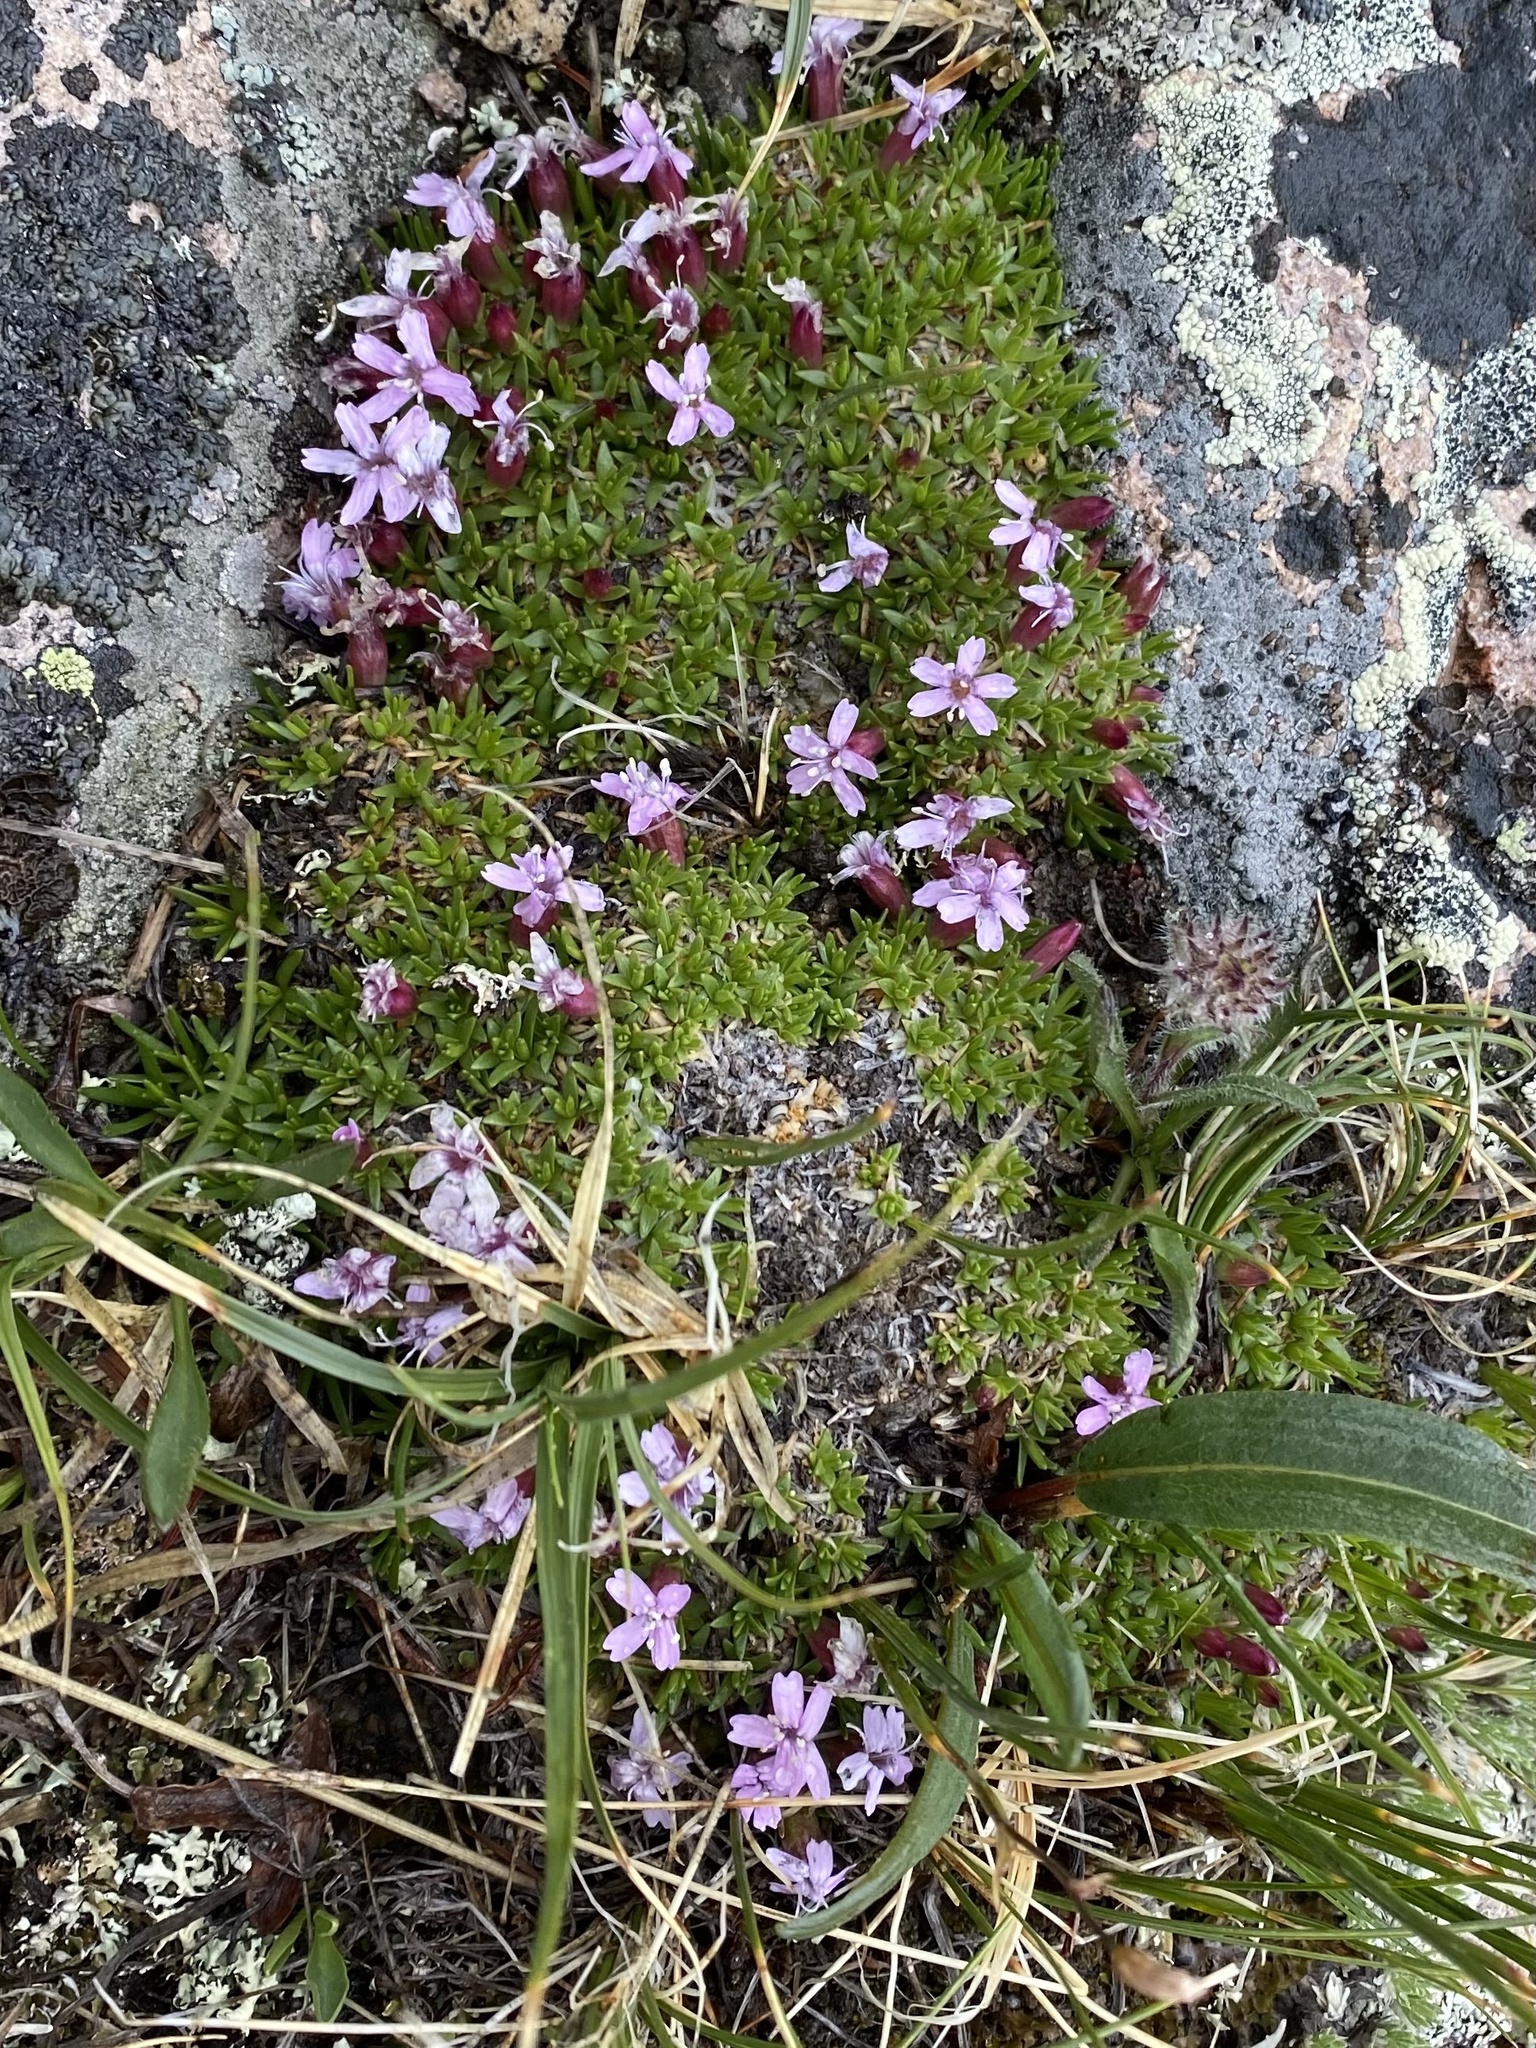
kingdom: Plantae
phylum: Tracheophyta
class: Magnoliopsida
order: Caryophyllales
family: Caryophyllaceae
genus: Silene
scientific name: Silene acaulis
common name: Moss campion
